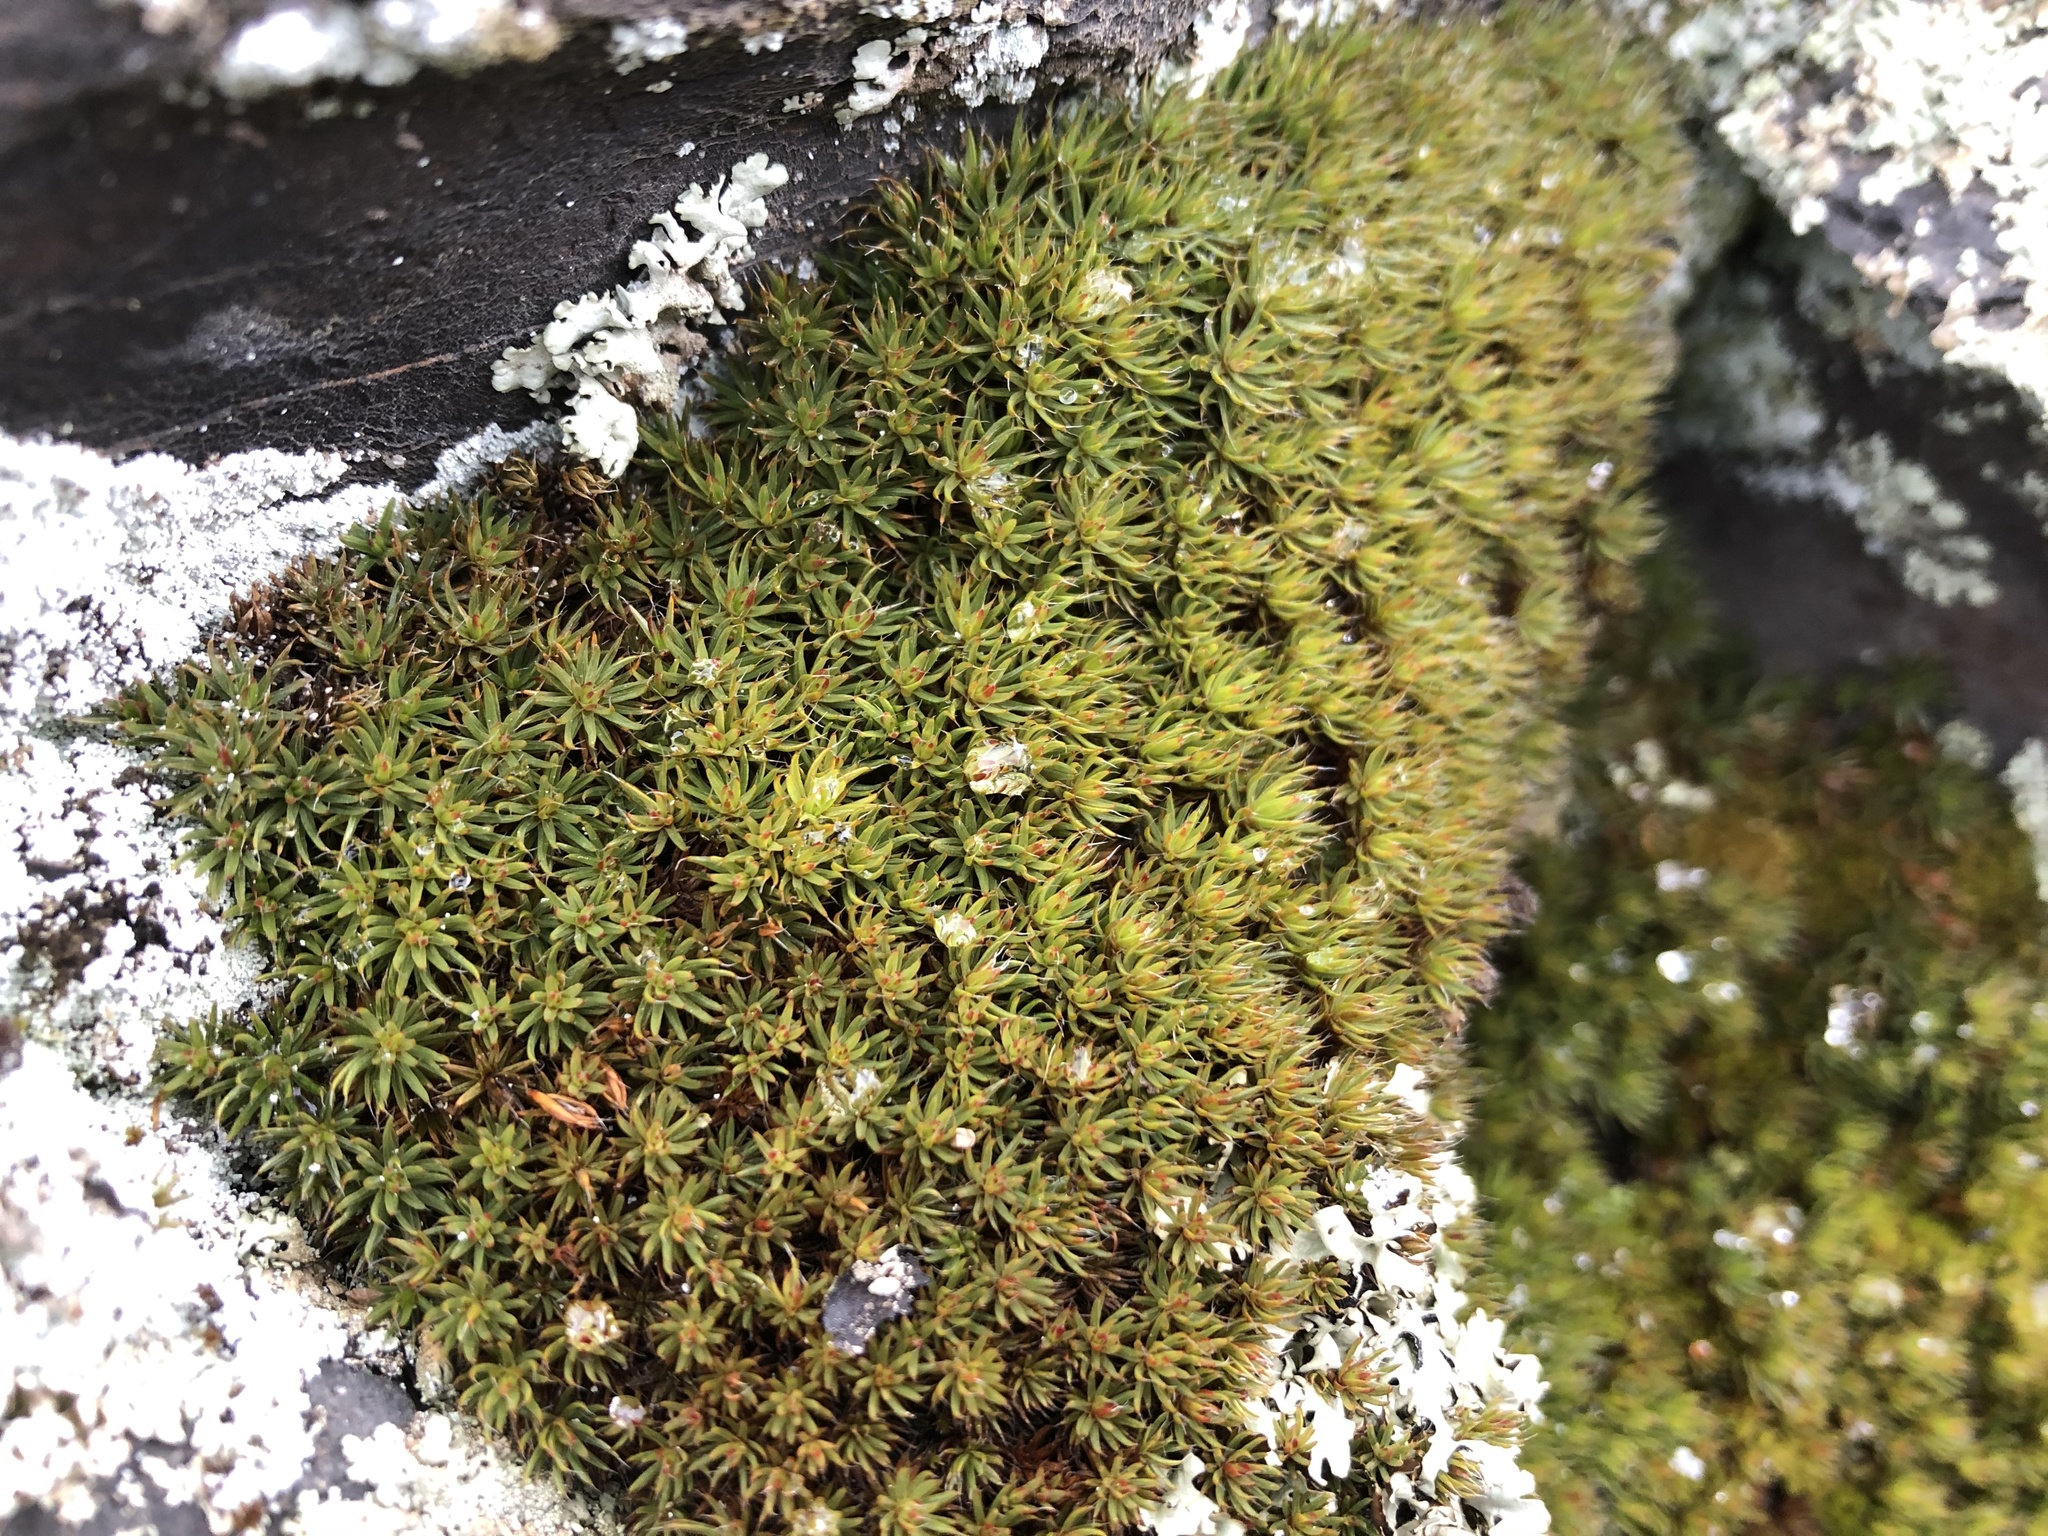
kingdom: Plantae
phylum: Bryophyta
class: Polytrichopsida
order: Polytrichales
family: Polytrichaceae
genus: Polytrichum
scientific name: Polytrichum piliferum
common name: Bristly haircap
